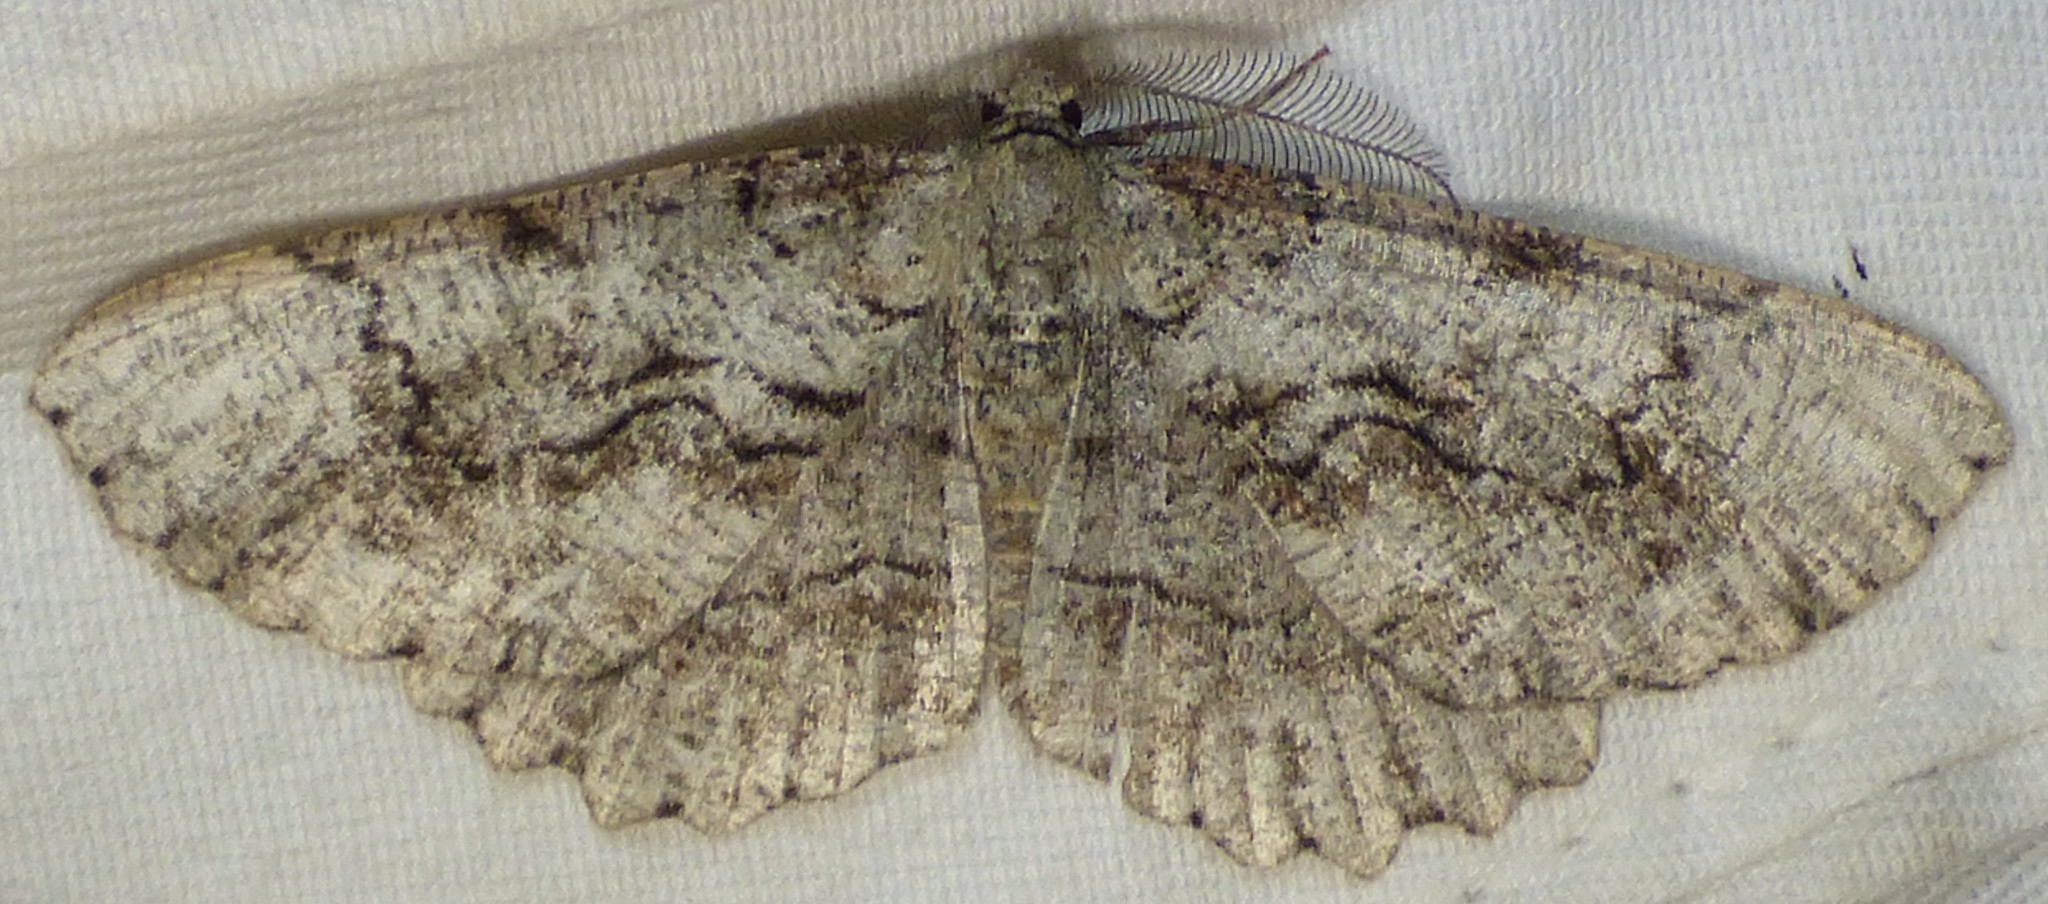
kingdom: Animalia
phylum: Arthropoda
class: Insecta
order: Lepidoptera
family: Geometridae
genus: Cymatophora
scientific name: Cymatophora approximaria
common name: Giant gray moth
